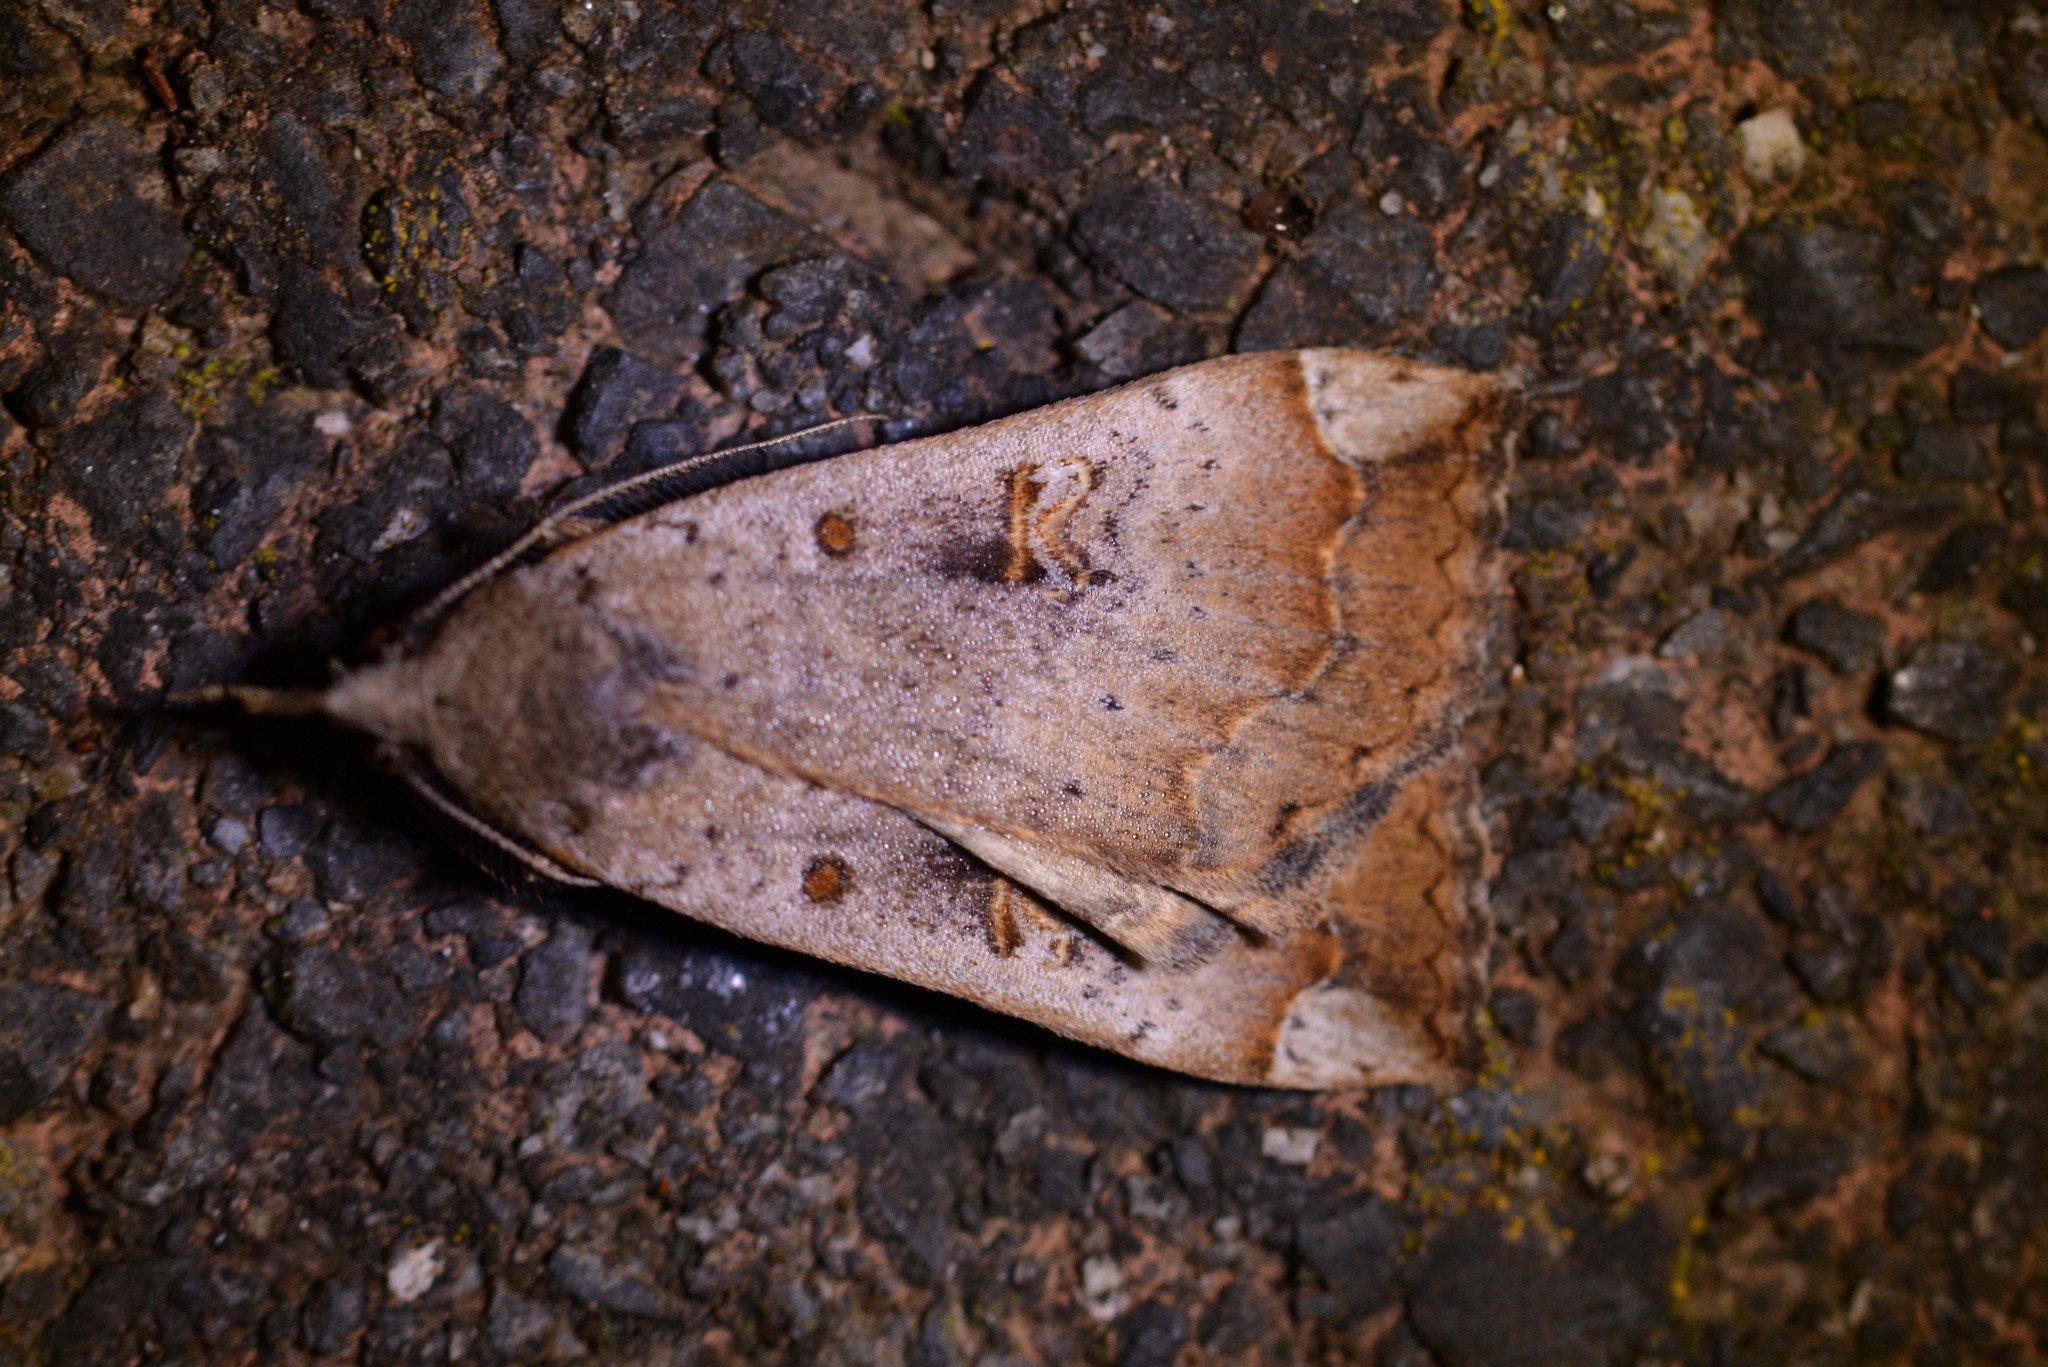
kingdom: Animalia
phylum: Arthropoda
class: Insecta
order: Lepidoptera
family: Erebidae
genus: Rhapsa
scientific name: Rhapsa scotosialis
